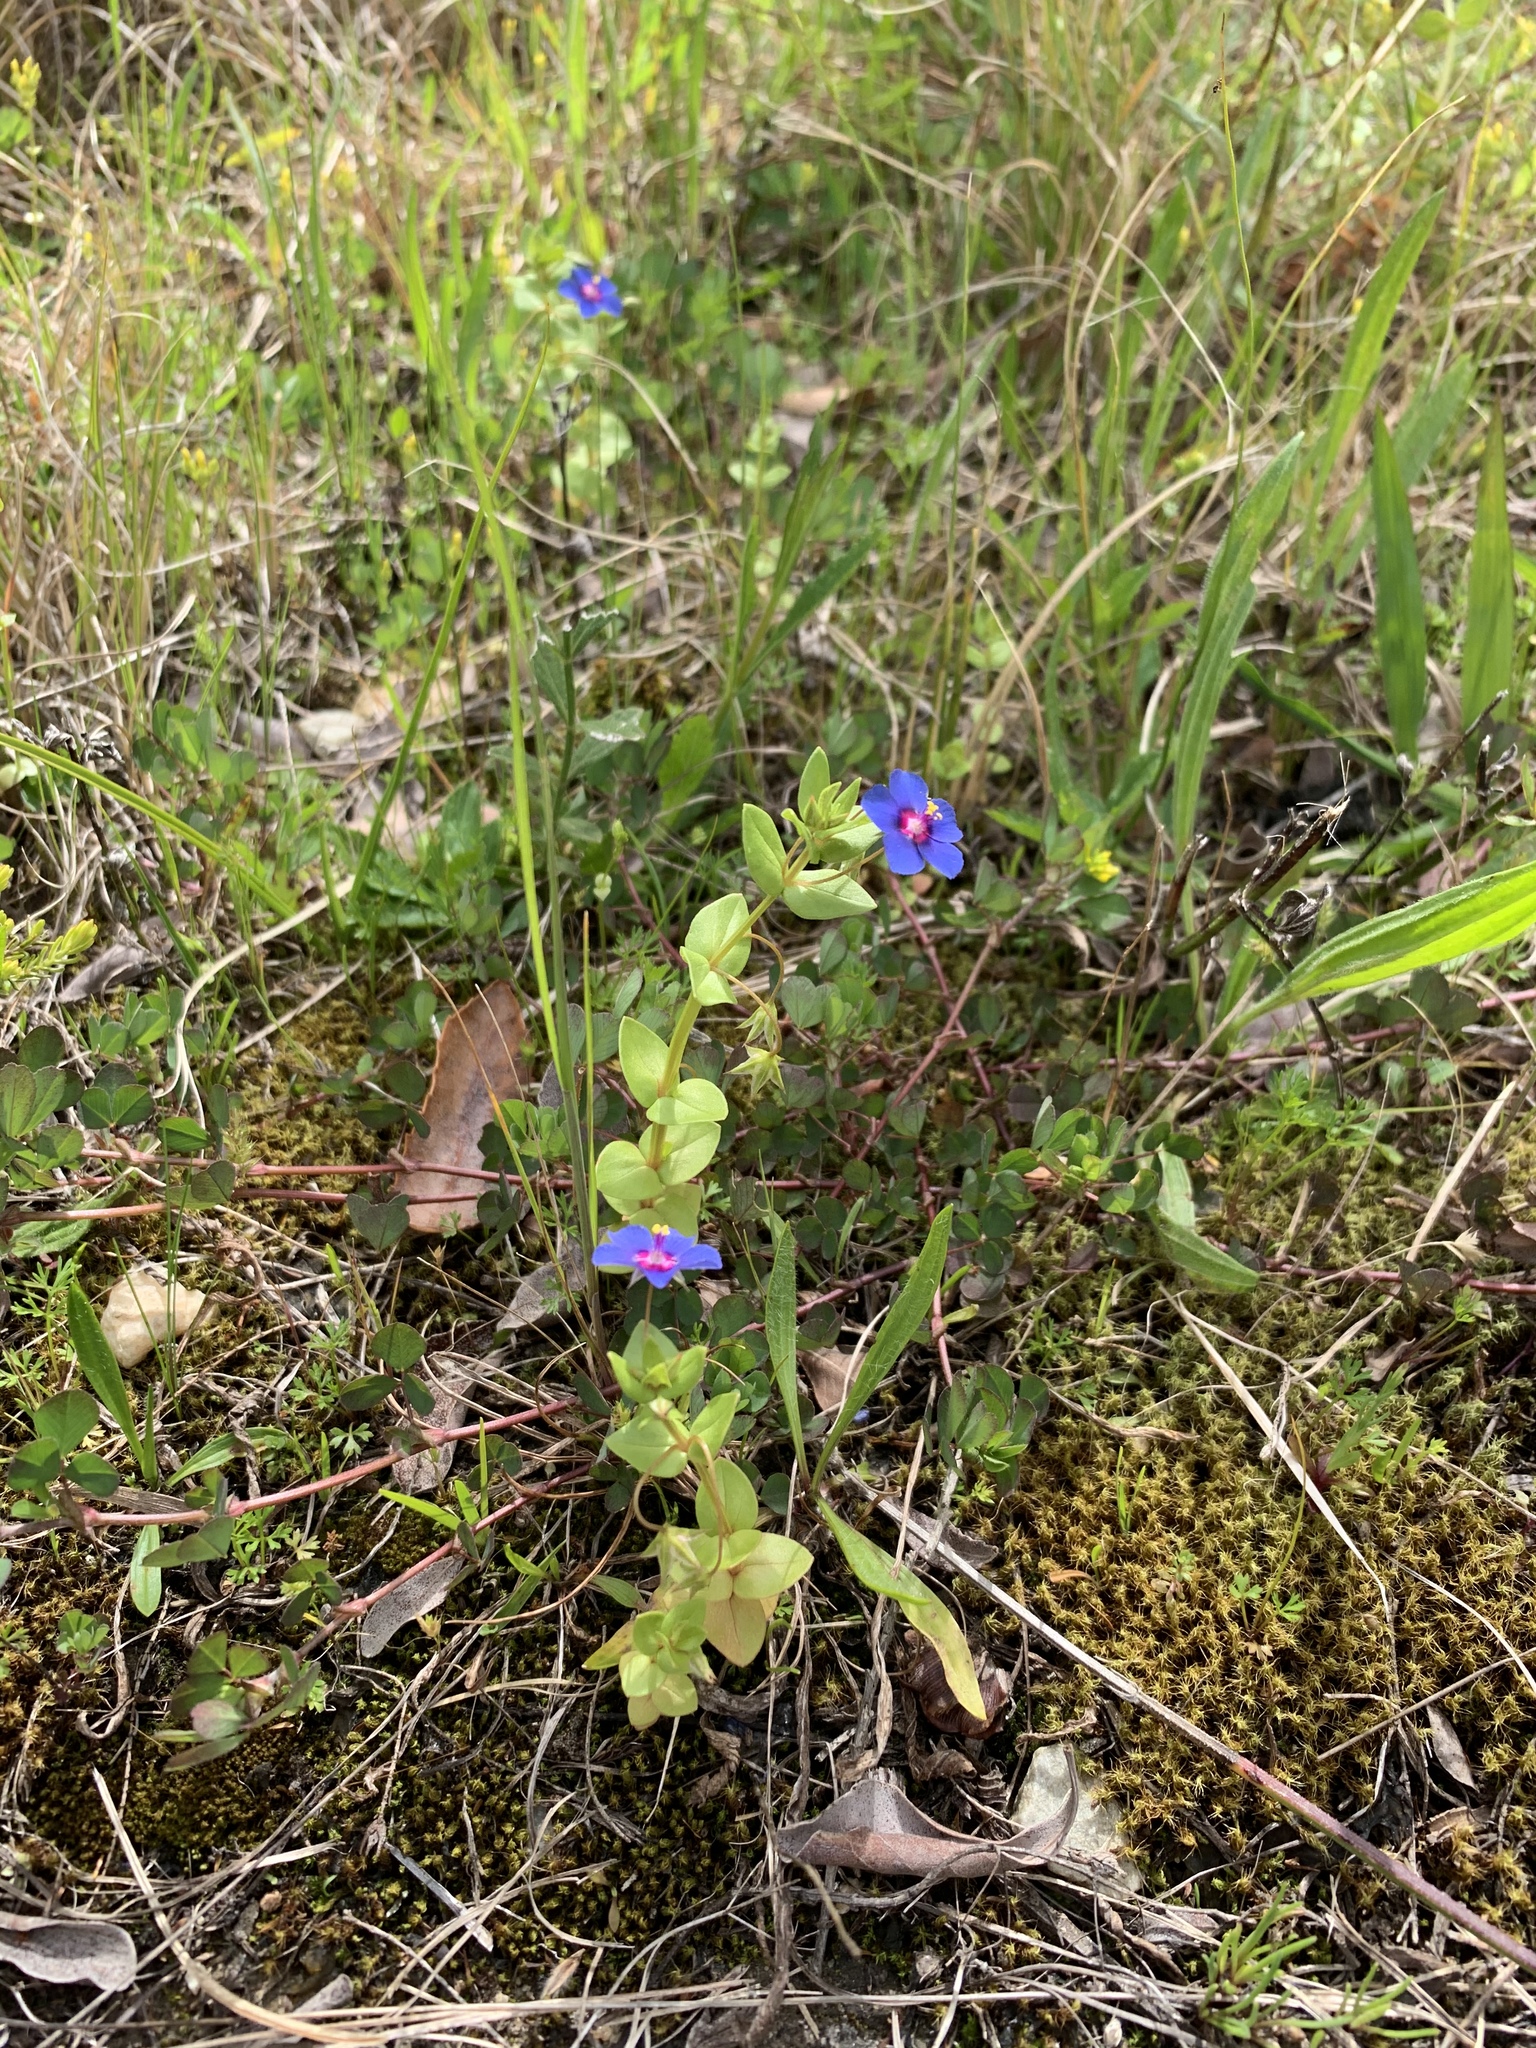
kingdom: Plantae
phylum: Tracheophyta
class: Magnoliopsida
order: Ericales
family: Primulaceae
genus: Lysimachia
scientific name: Lysimachia loeflingii
